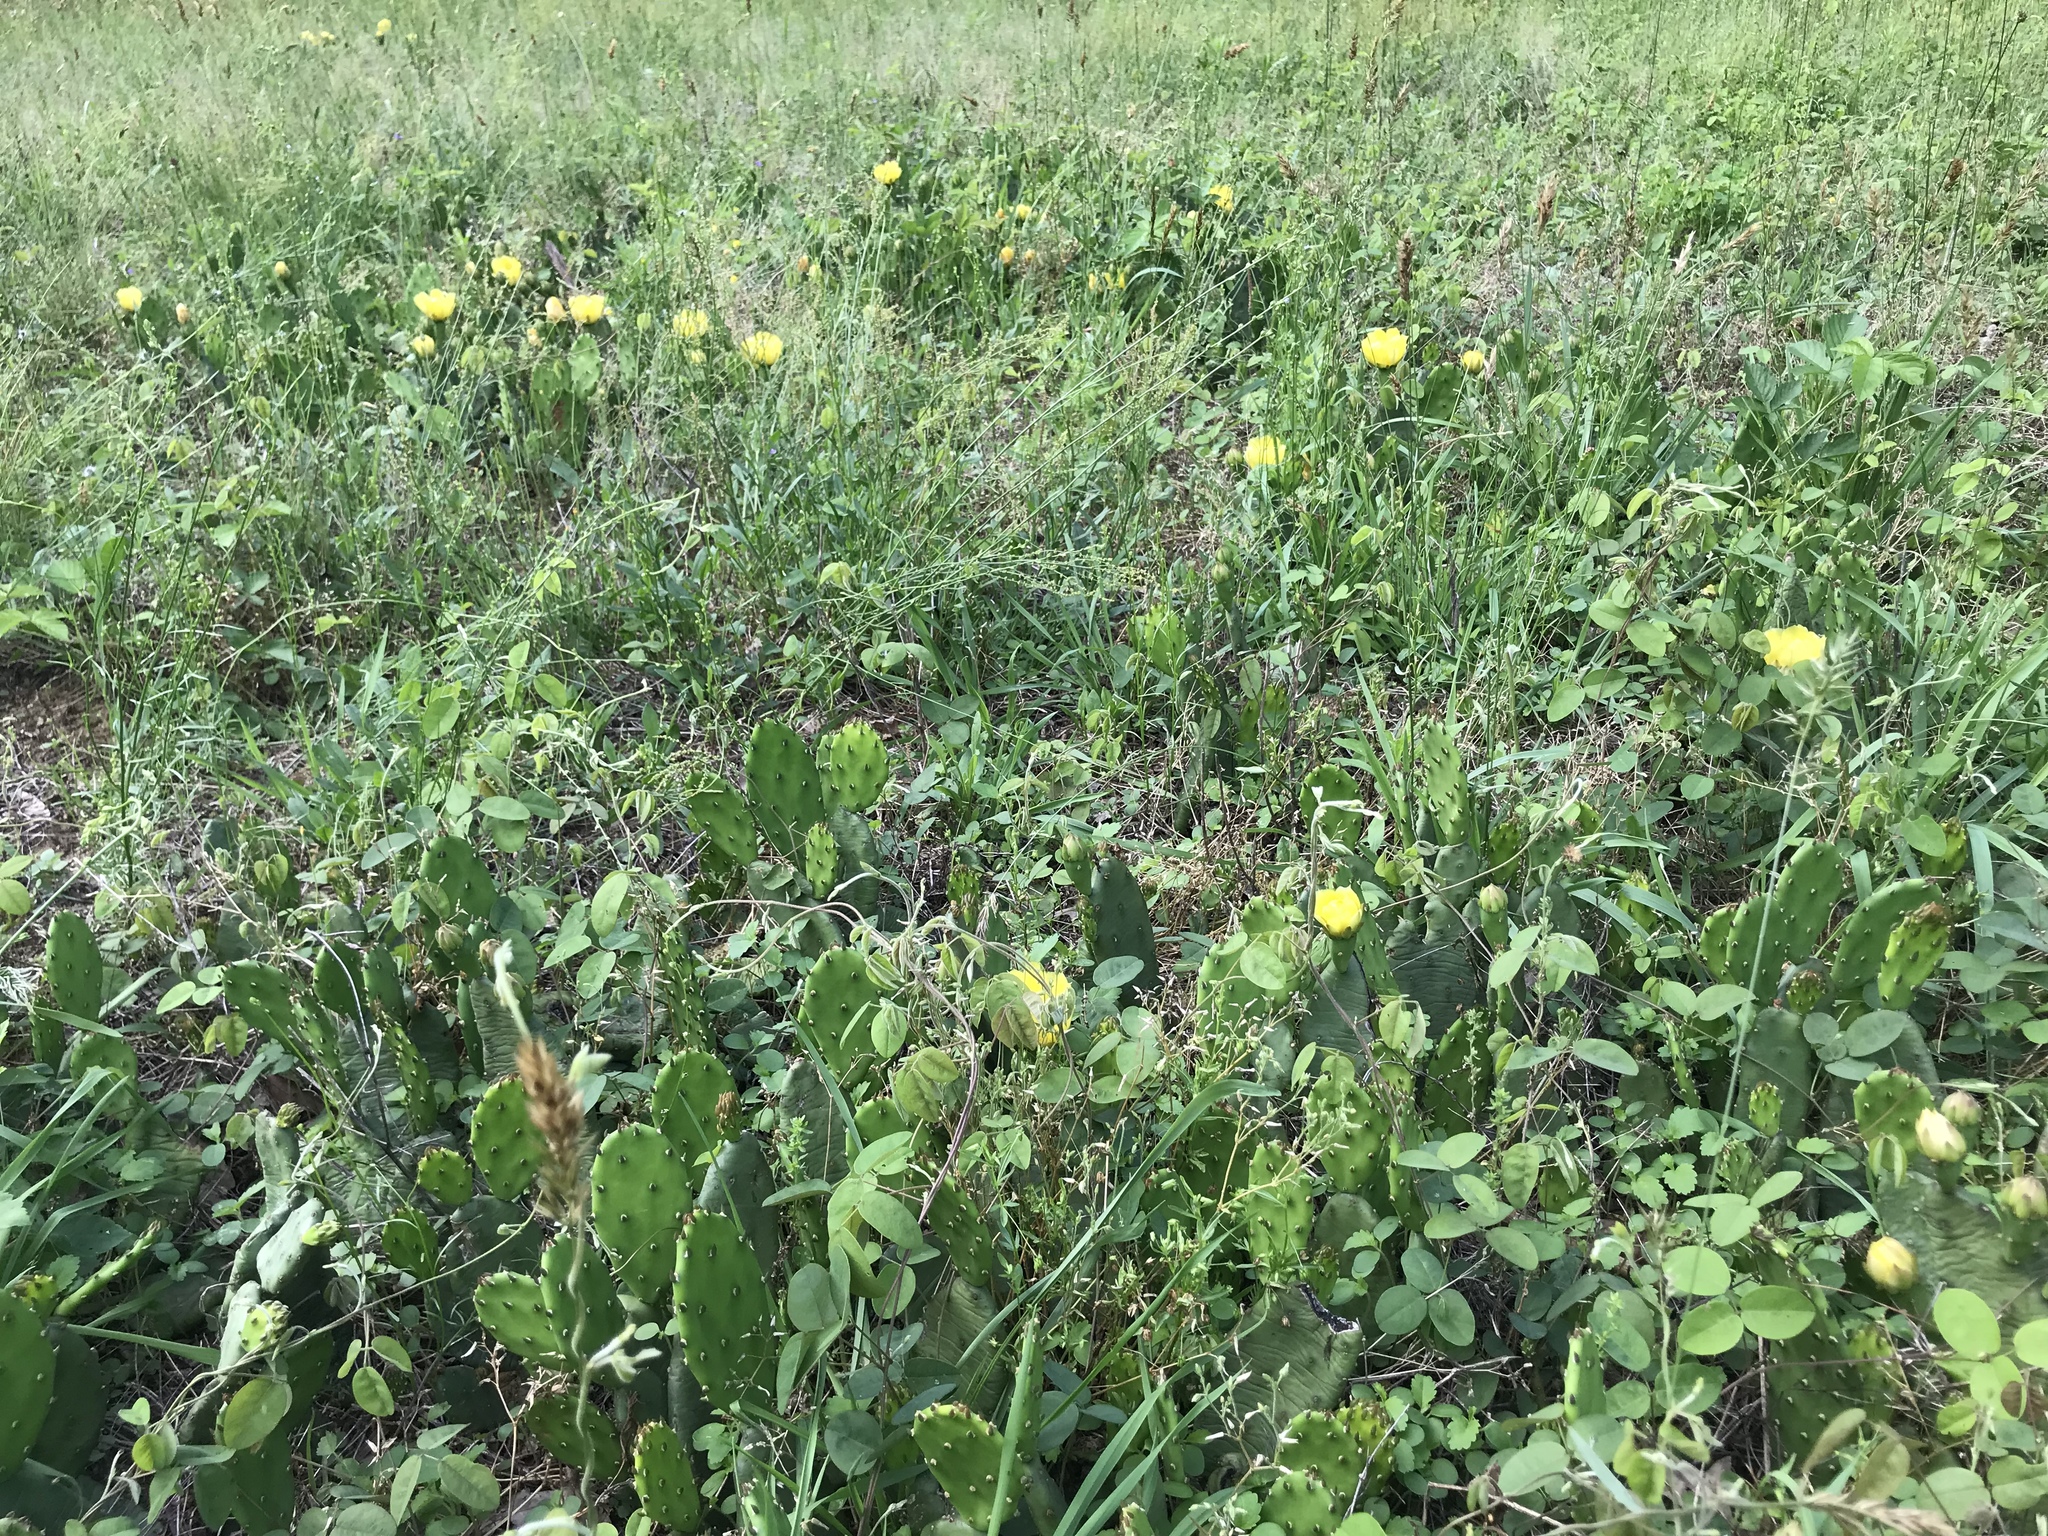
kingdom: Plantae
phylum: Tracheophyta
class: Magnoliopsida
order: Caryophyllales
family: Cactaceae
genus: Opuntia
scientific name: Opuntia humifusa
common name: Eastern prickly-pear
